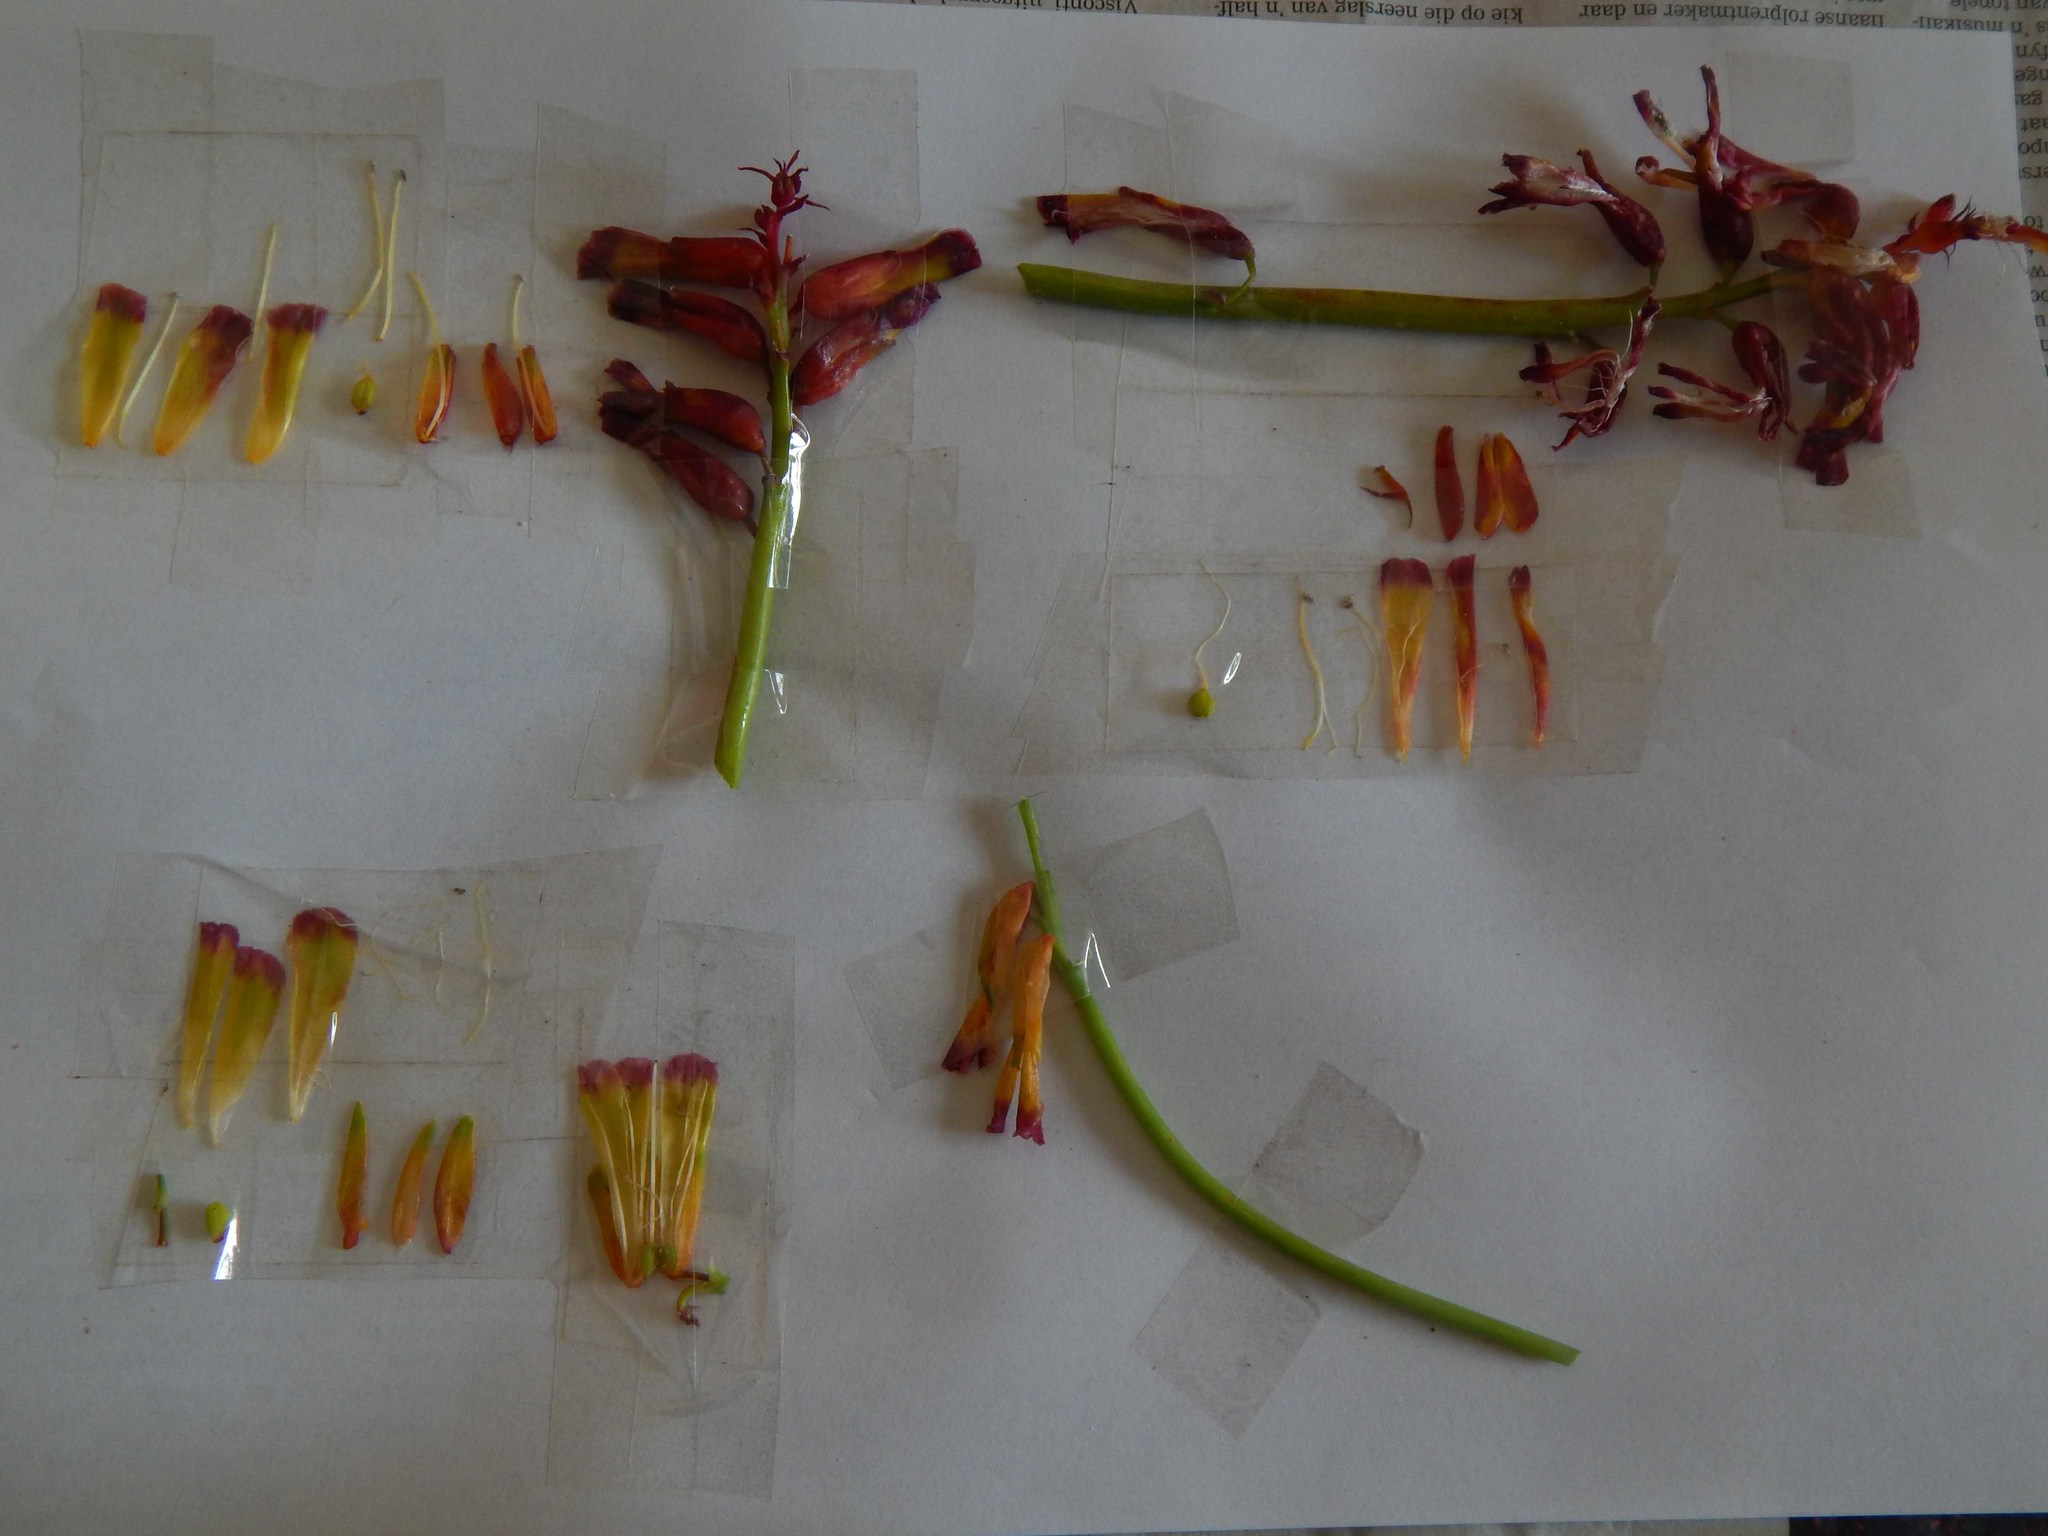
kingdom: Plantae
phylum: Tracheophyta
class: Liliopsida
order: Asparagales
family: Asparagaceae
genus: Lachenalia
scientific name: Lachenalia quadricolor
